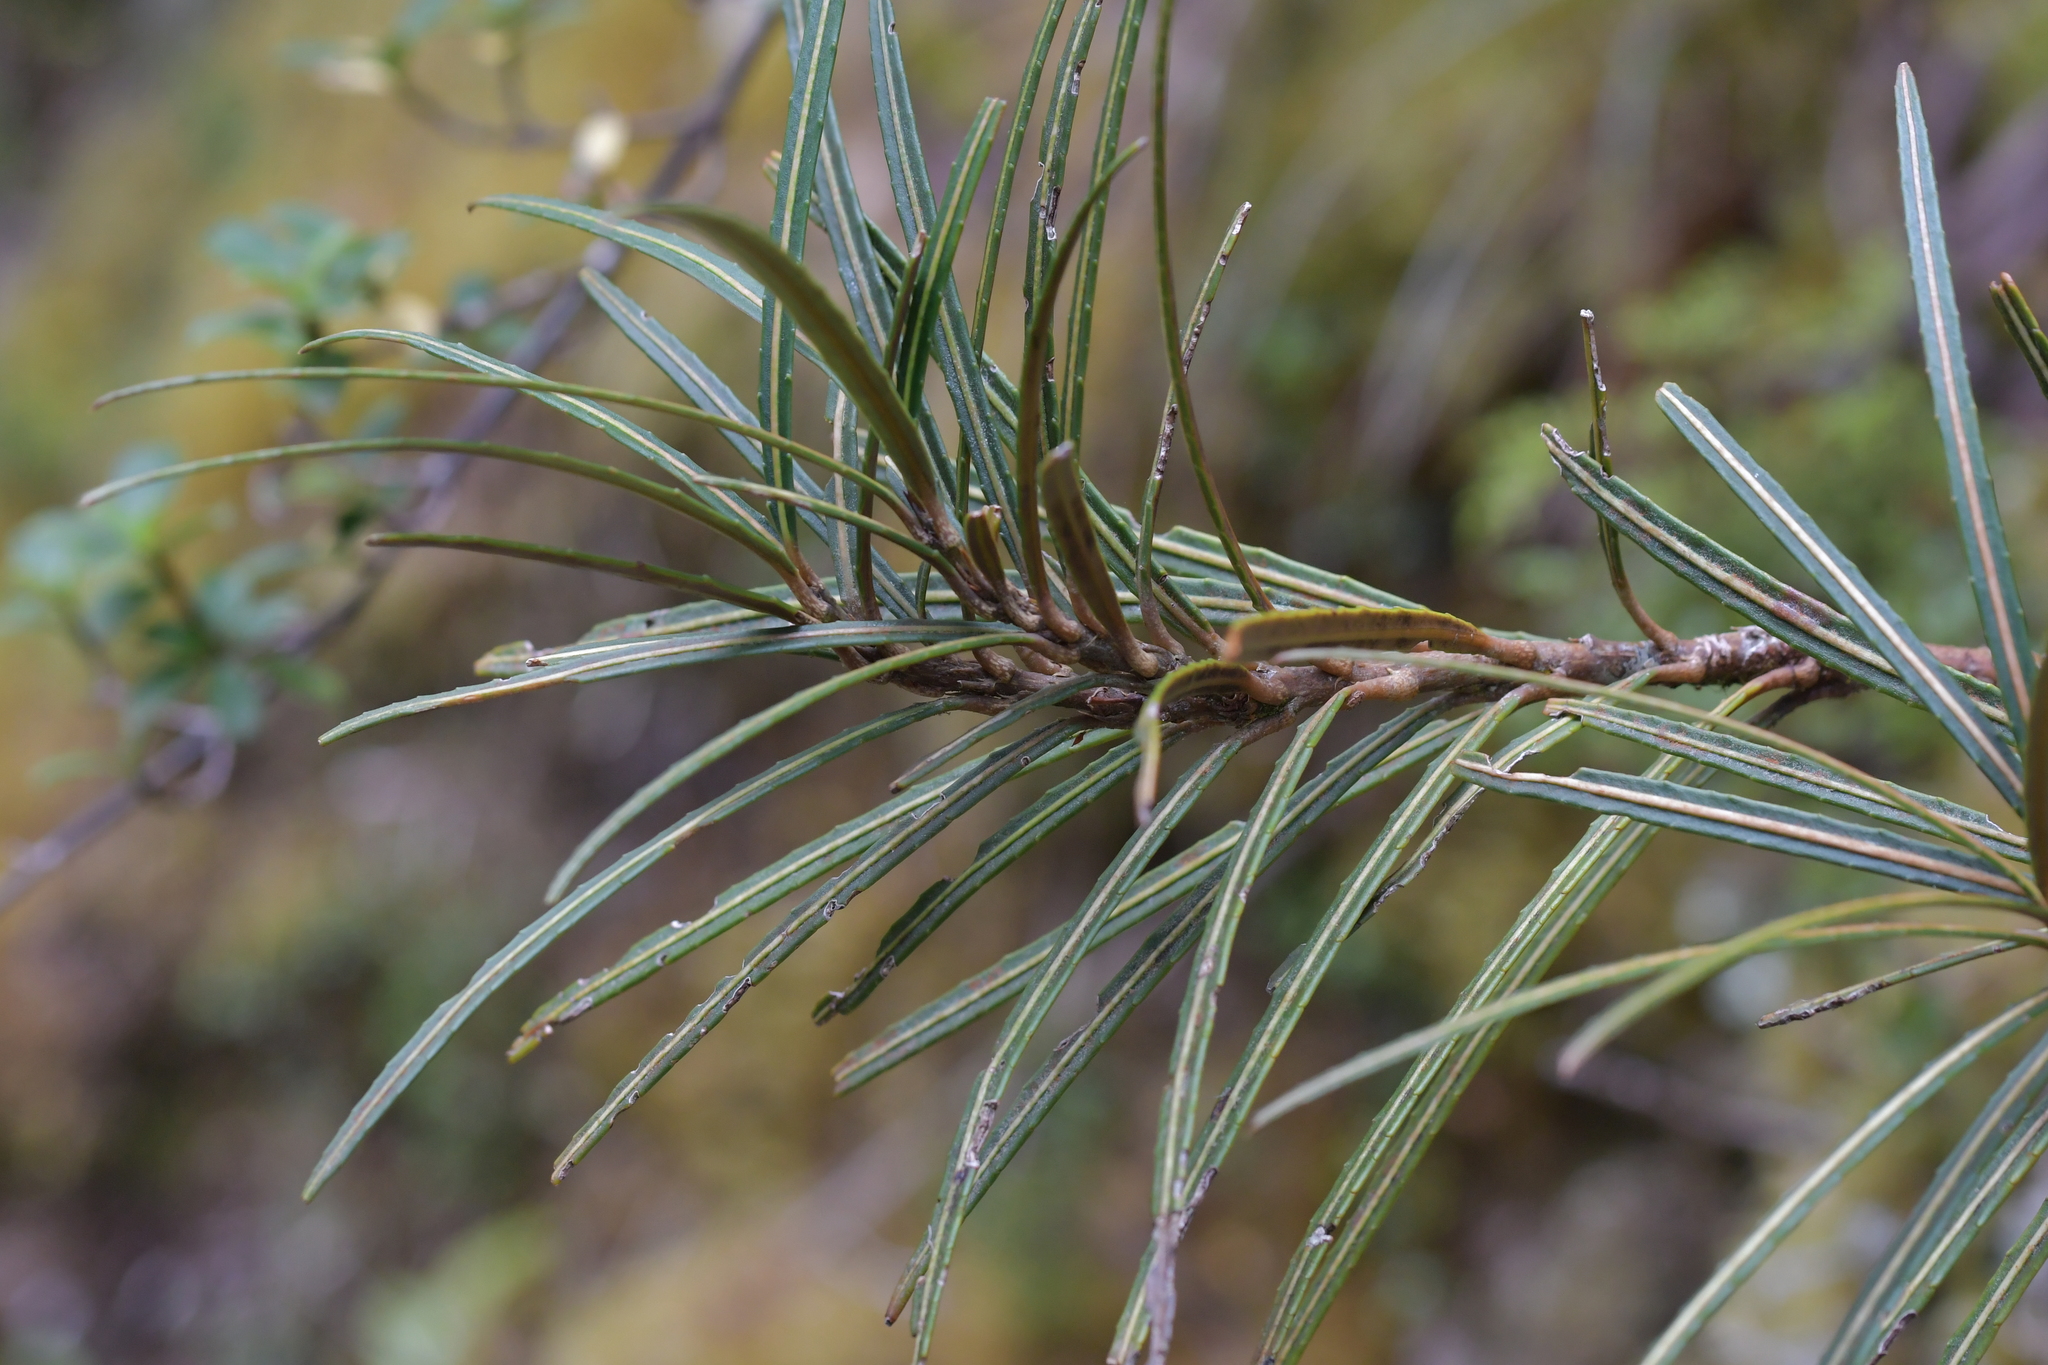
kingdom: Plantae
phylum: Tracheophyta
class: Magnoliopsida
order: Apiales
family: Araliaceae
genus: Pseudopanax
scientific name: Pseudopanax linearis
